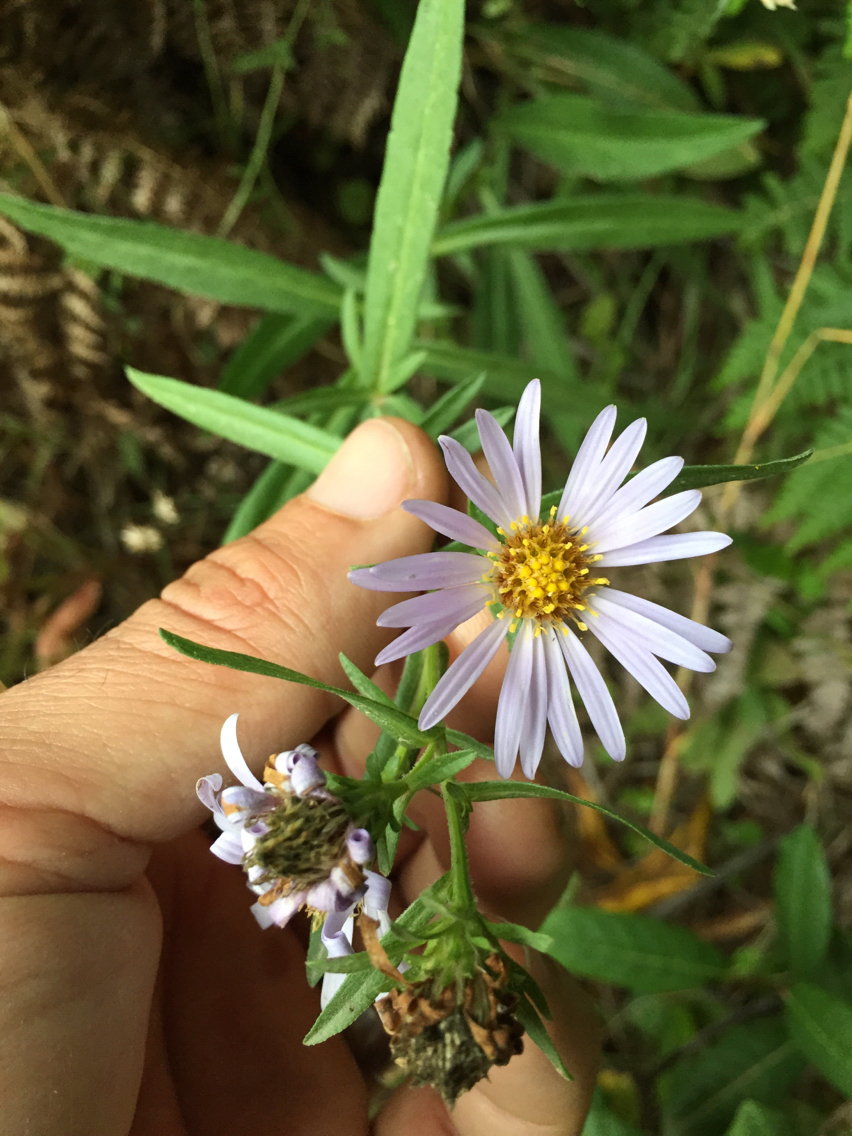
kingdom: Plantae
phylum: Tracheophyta
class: Magnoliopsida
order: Asterales
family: Asteraceae
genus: Symphyotrichum
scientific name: Symphyotrichum chilense
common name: Pacific aster
